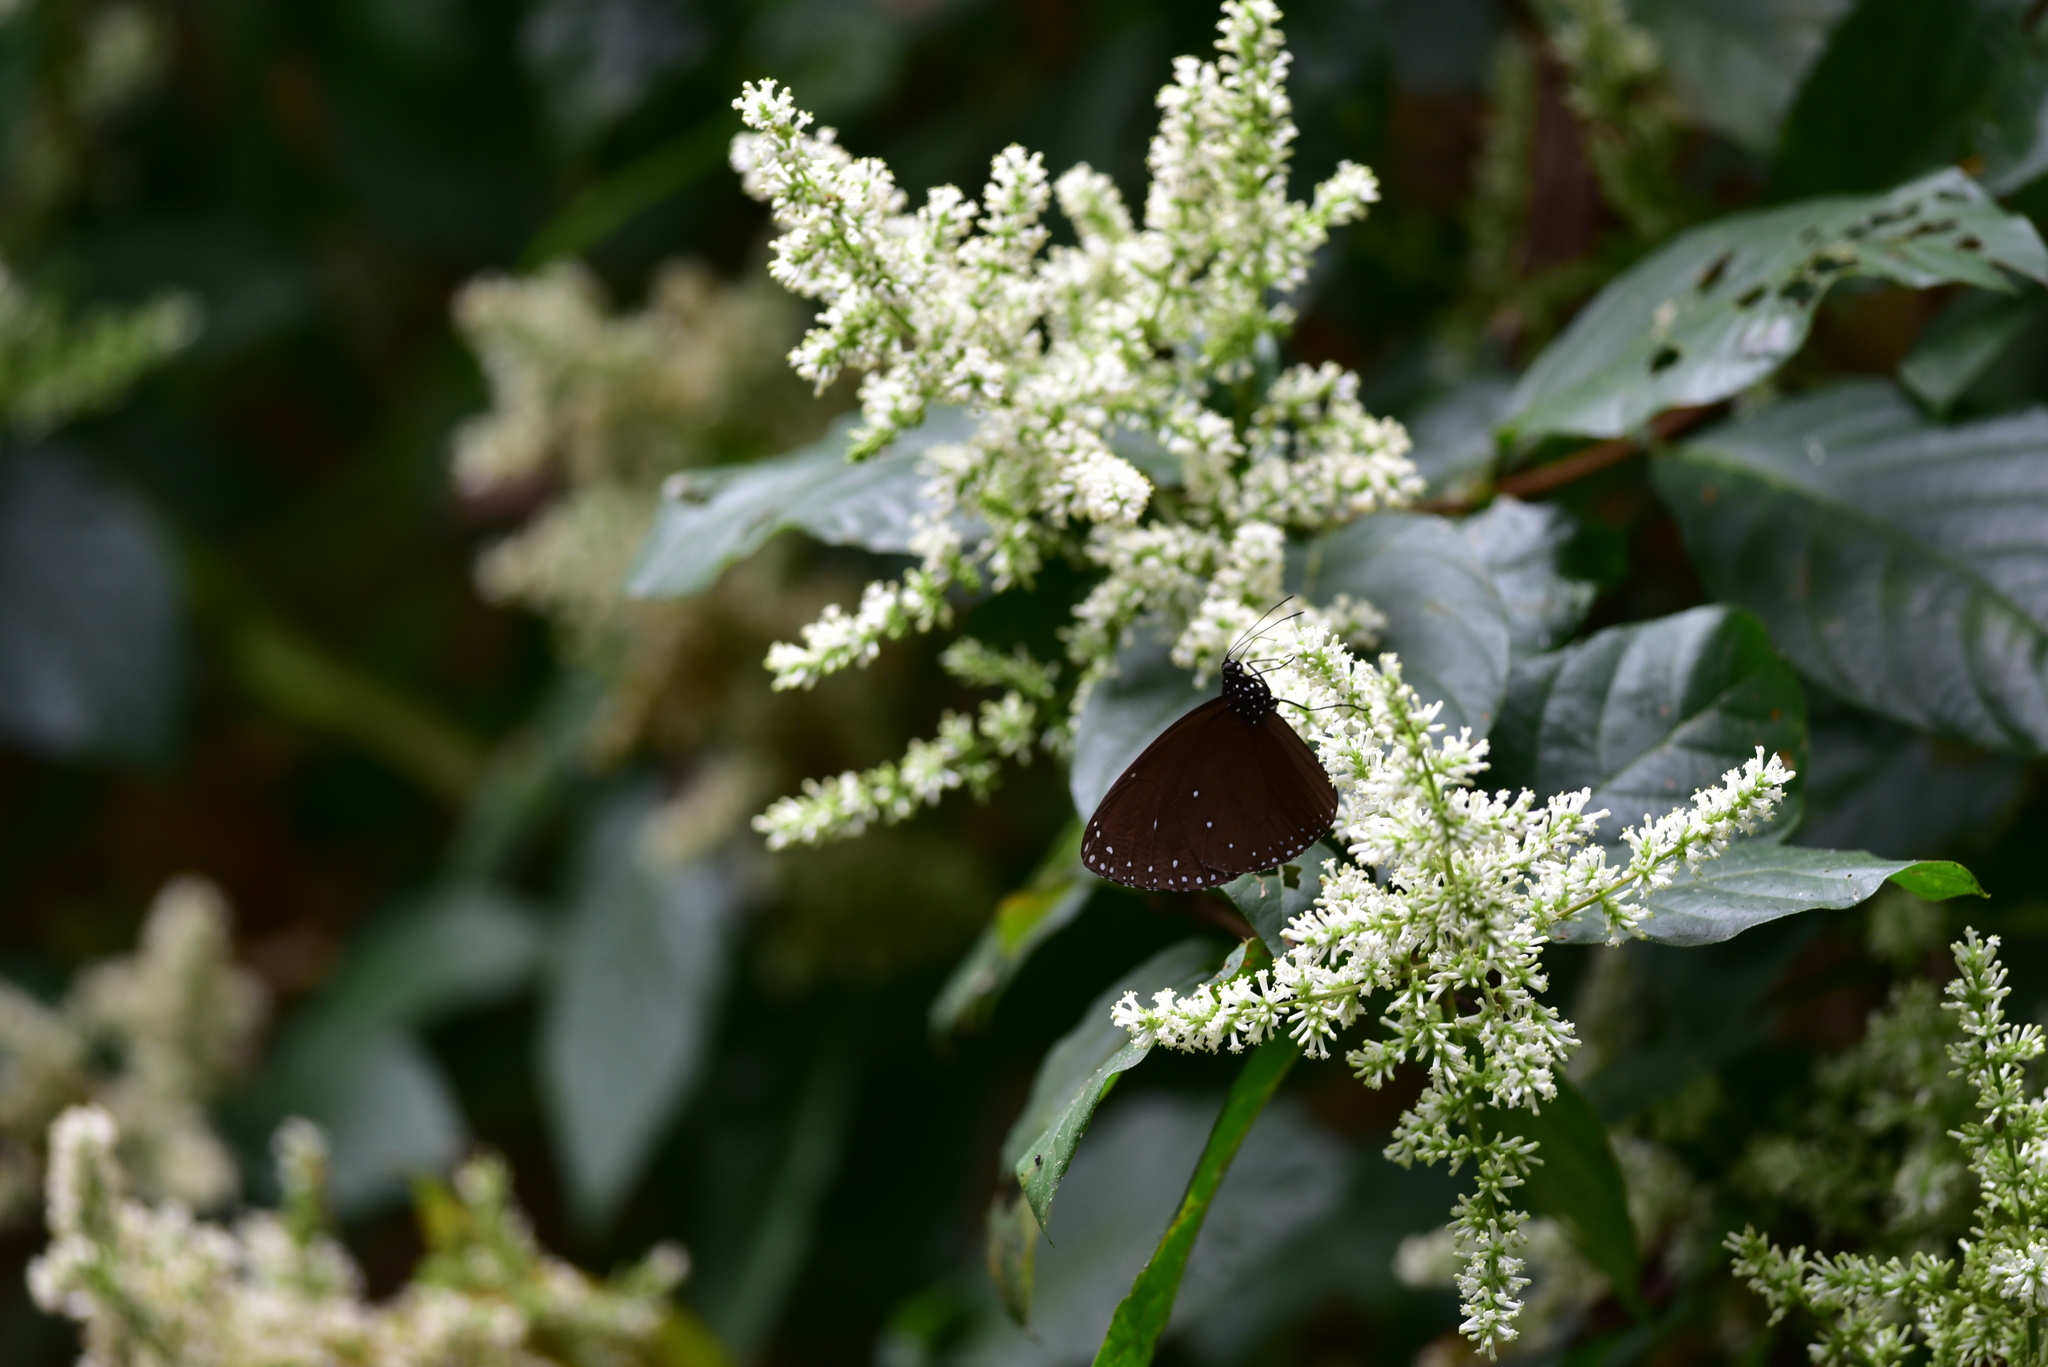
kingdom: Animalia
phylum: Arthropoda
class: Insecta
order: Lepidoptera
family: Nymphalidae
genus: Euploea
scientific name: Euploea eunice
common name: Blue-banded king crow butterfly
